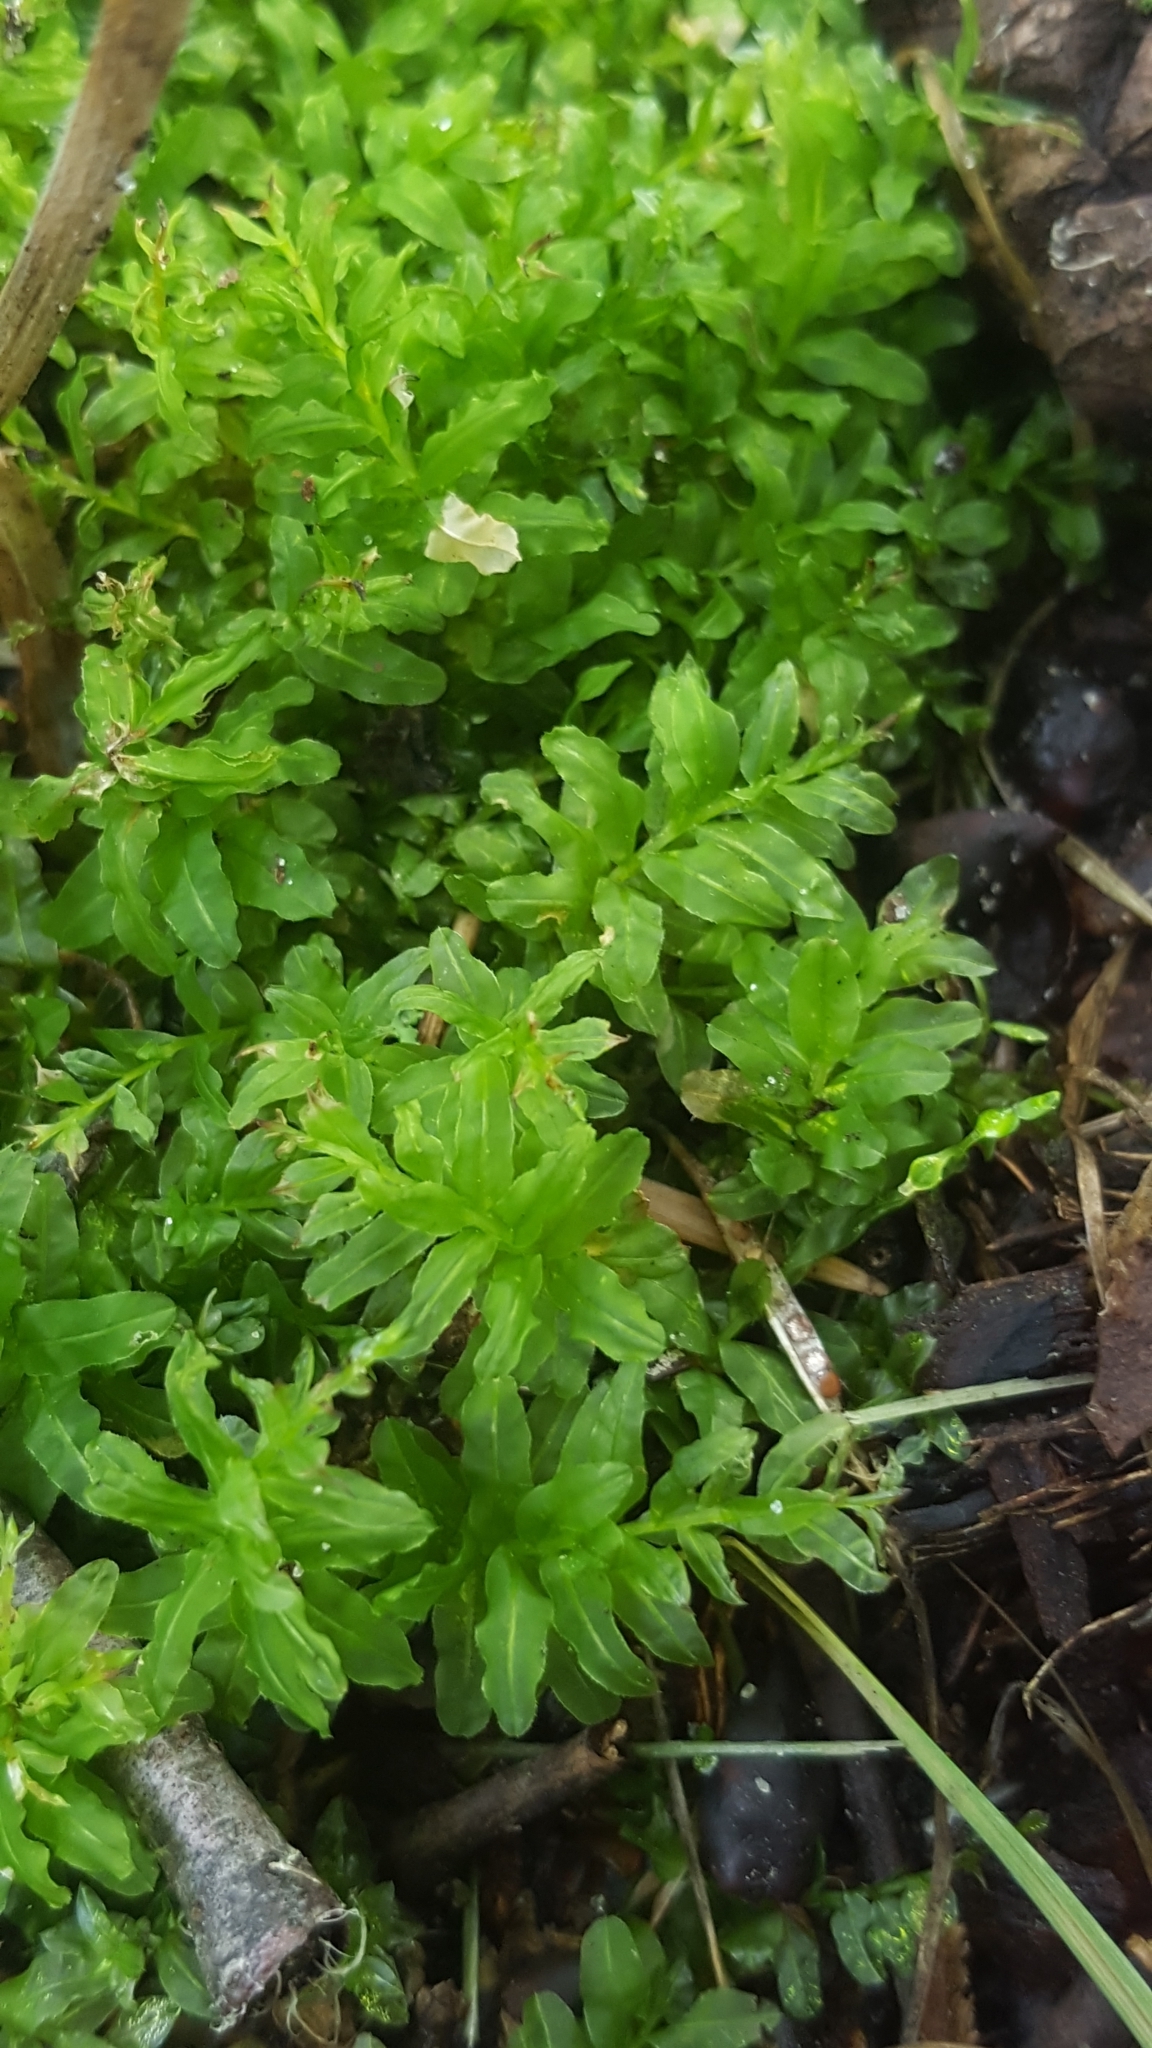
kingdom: Plantae
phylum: Bryophyta
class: Bryopsida
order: Bryales
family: Mniaceae
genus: Plagiomnium
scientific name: Plagiomnium undulatum
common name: Hart's-tongue thyme-moss
